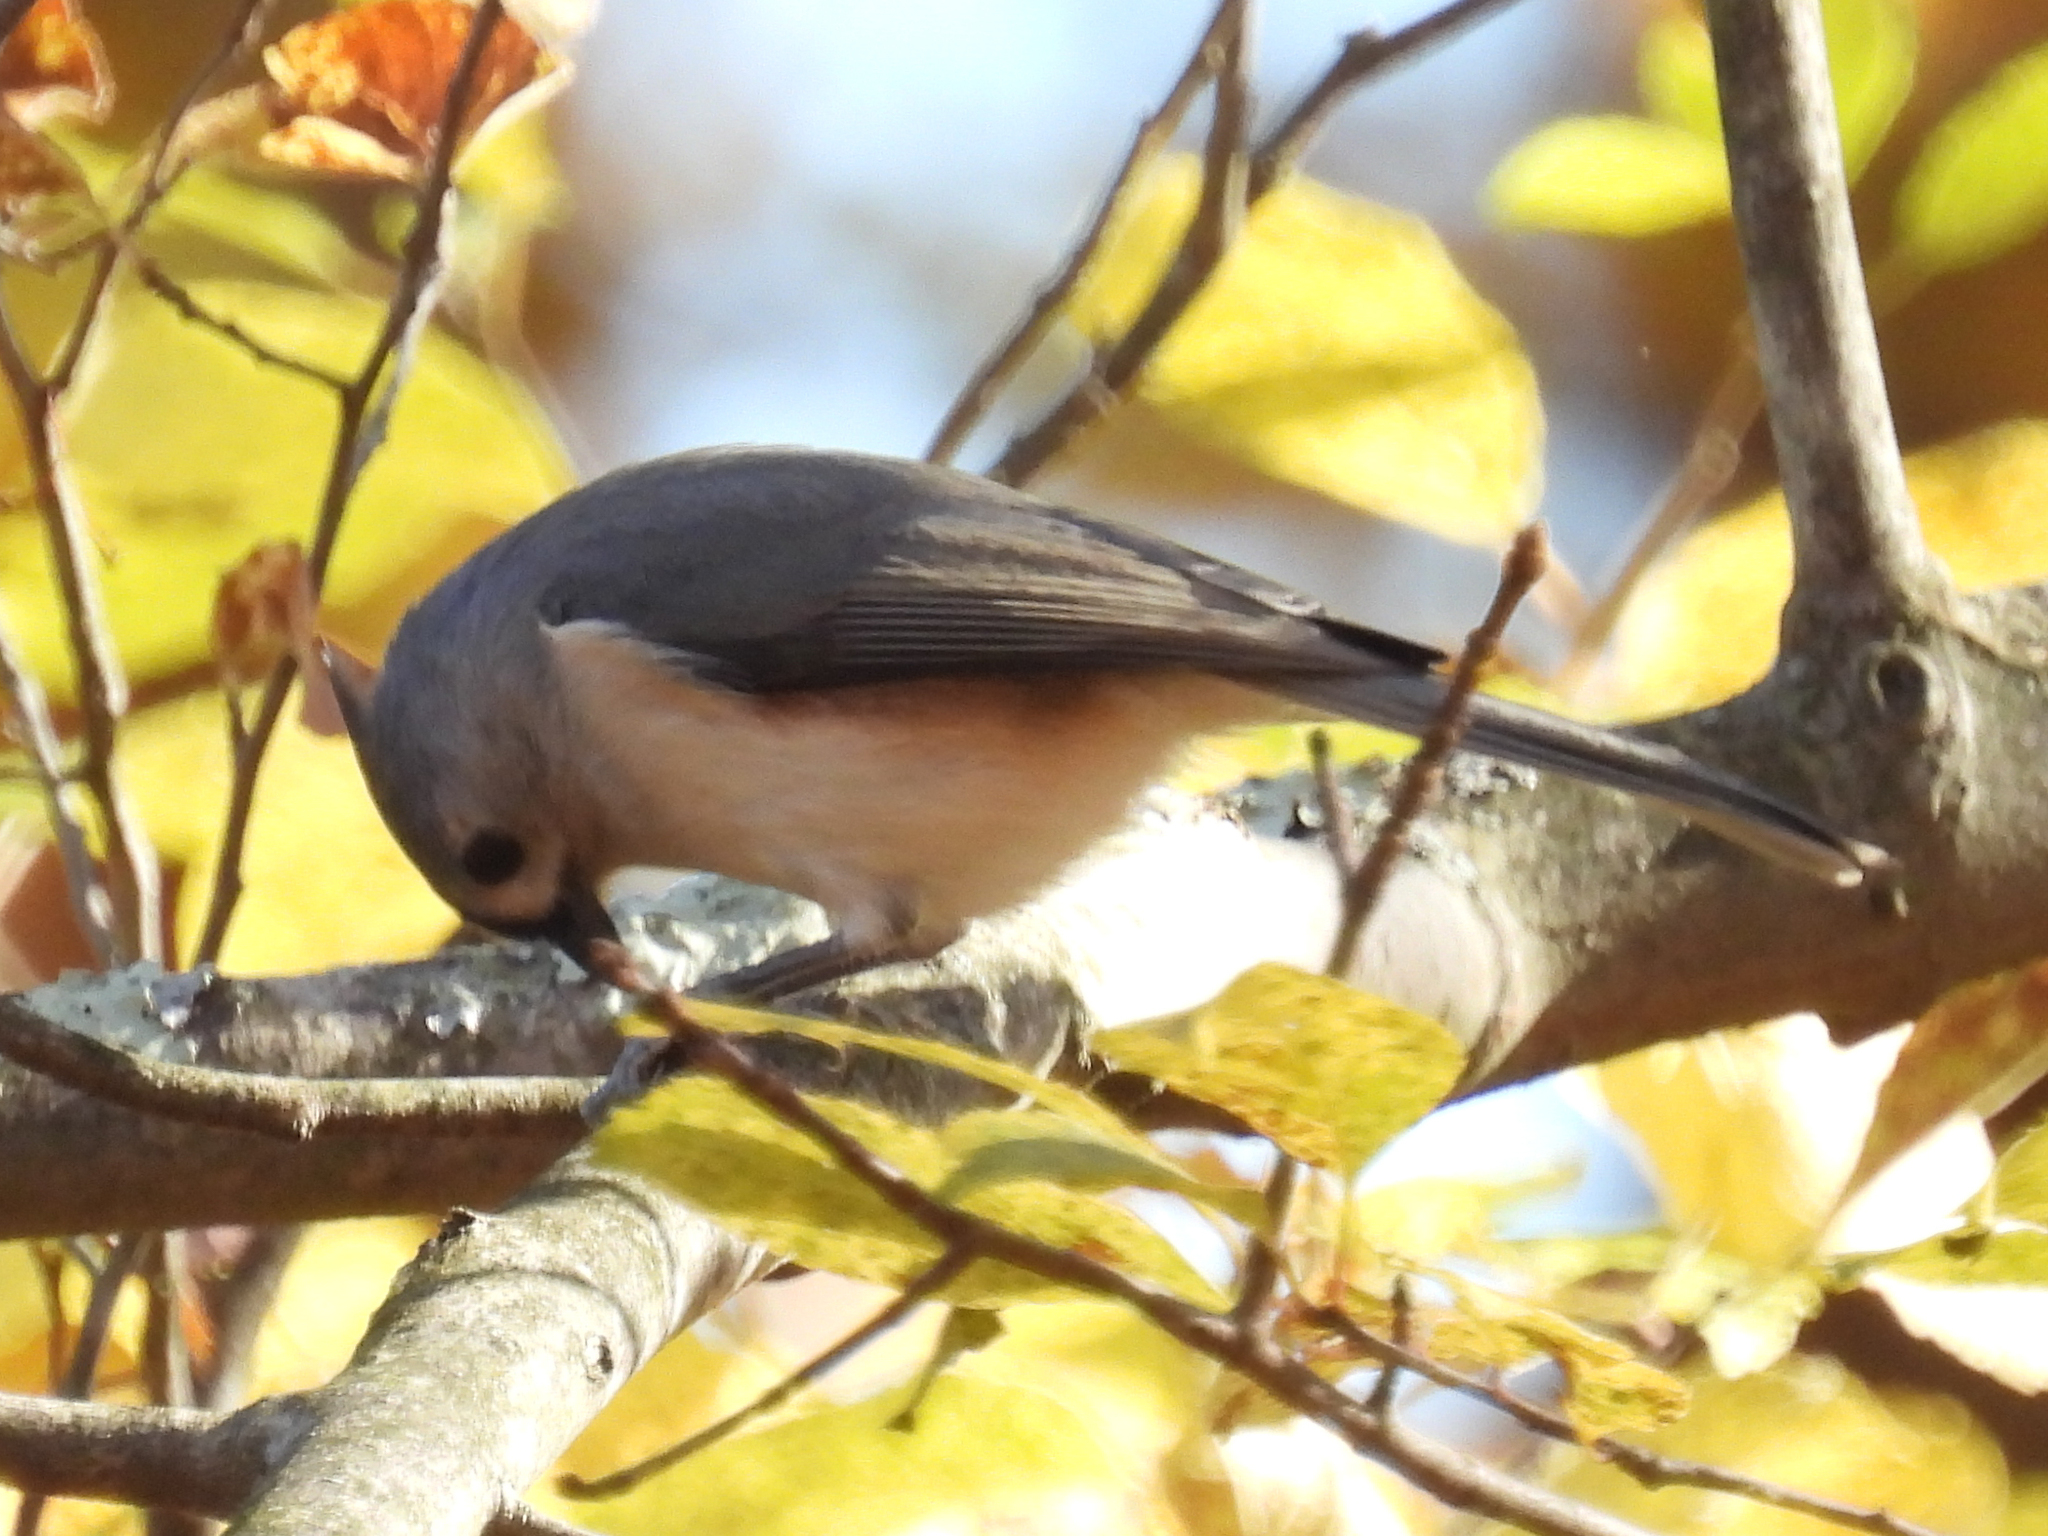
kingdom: Animalia
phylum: Chordata
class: Aves
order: Passeriformes
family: Paridae
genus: Baeolophus
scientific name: Baeolophus bicolor
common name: Tufted titmouse
